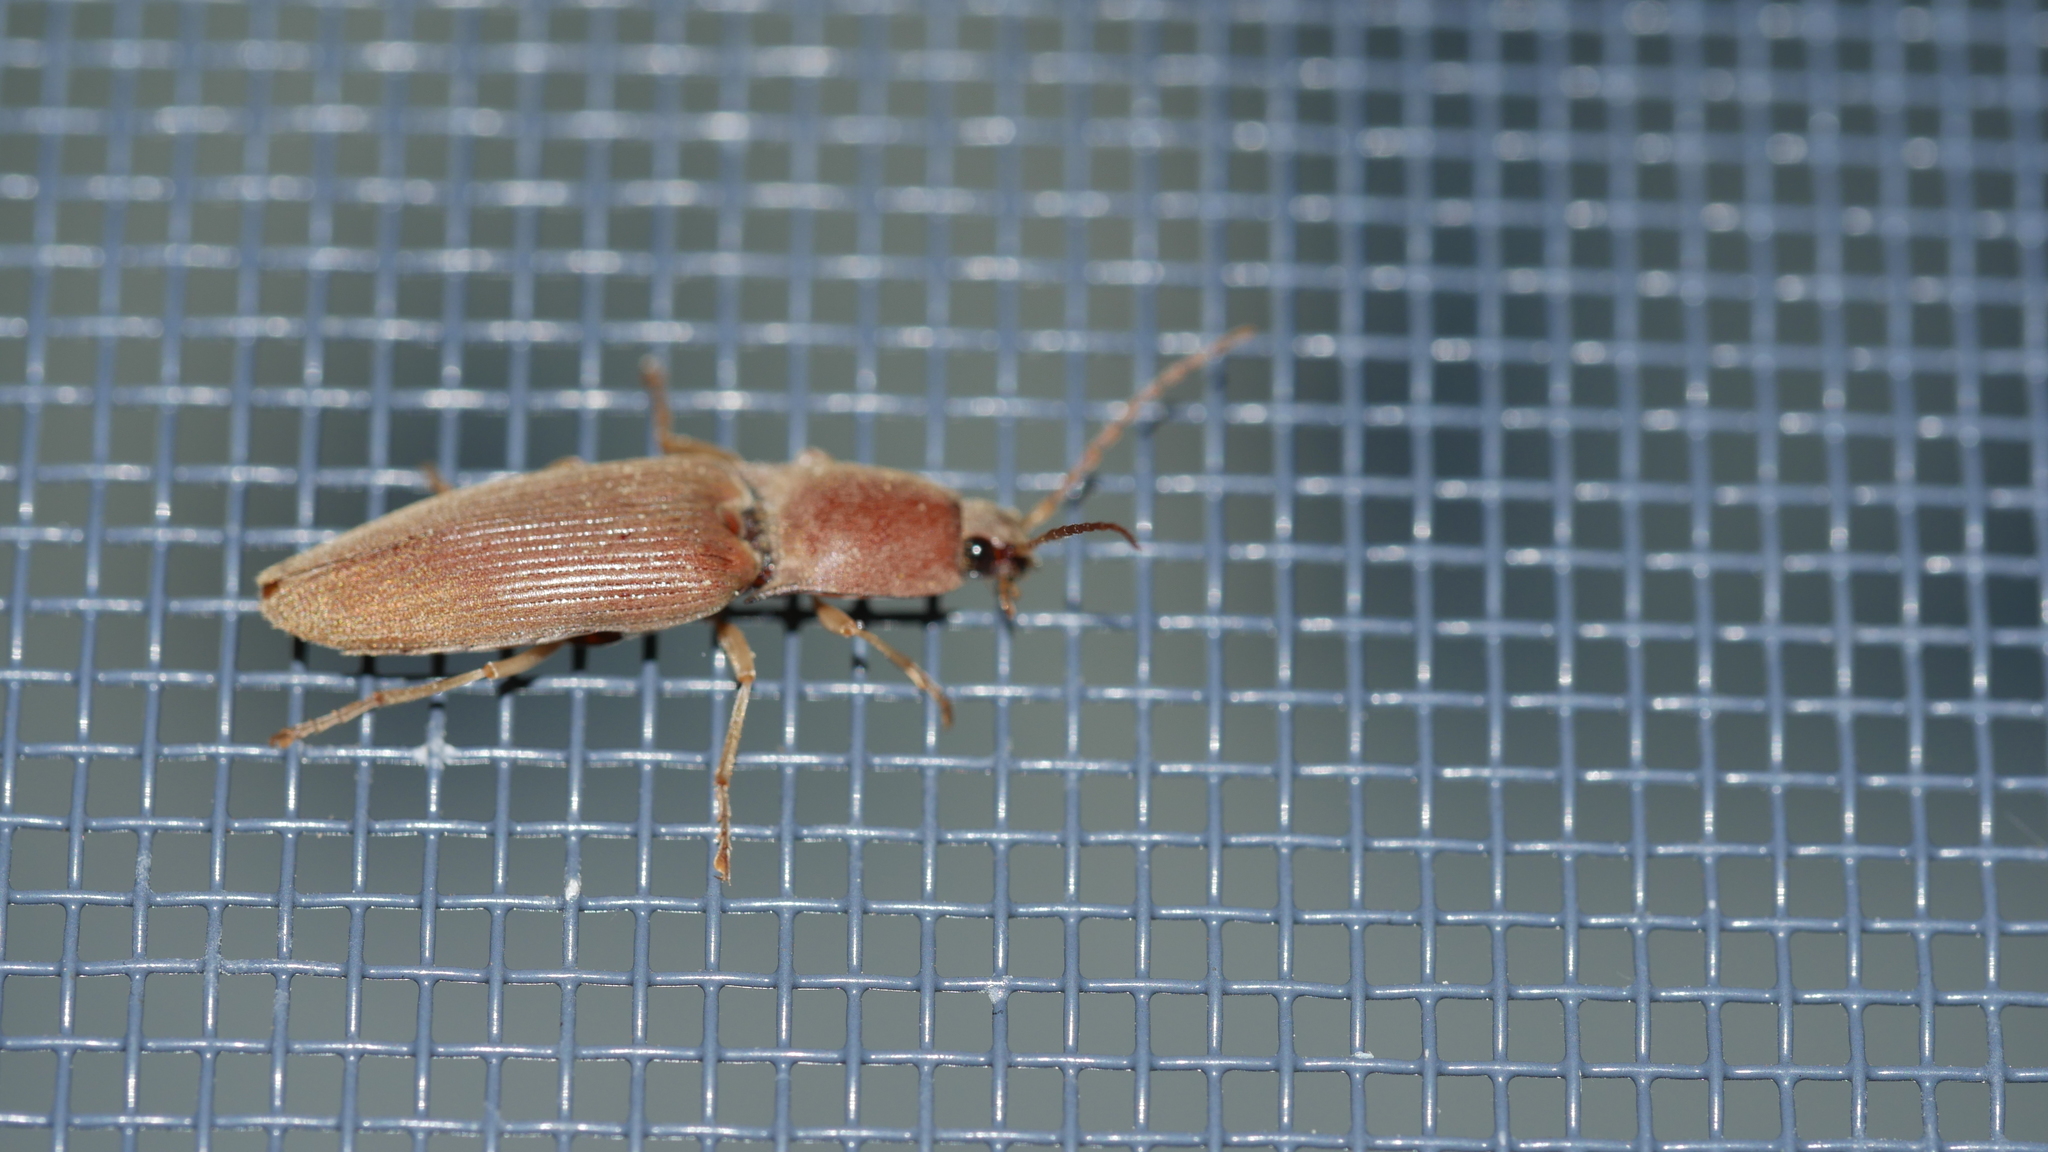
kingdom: Animalia
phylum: Arthropoda
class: Insecta
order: Coleoptera
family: Elateridae
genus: Monocrepidius
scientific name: Monocrepidius lividus
